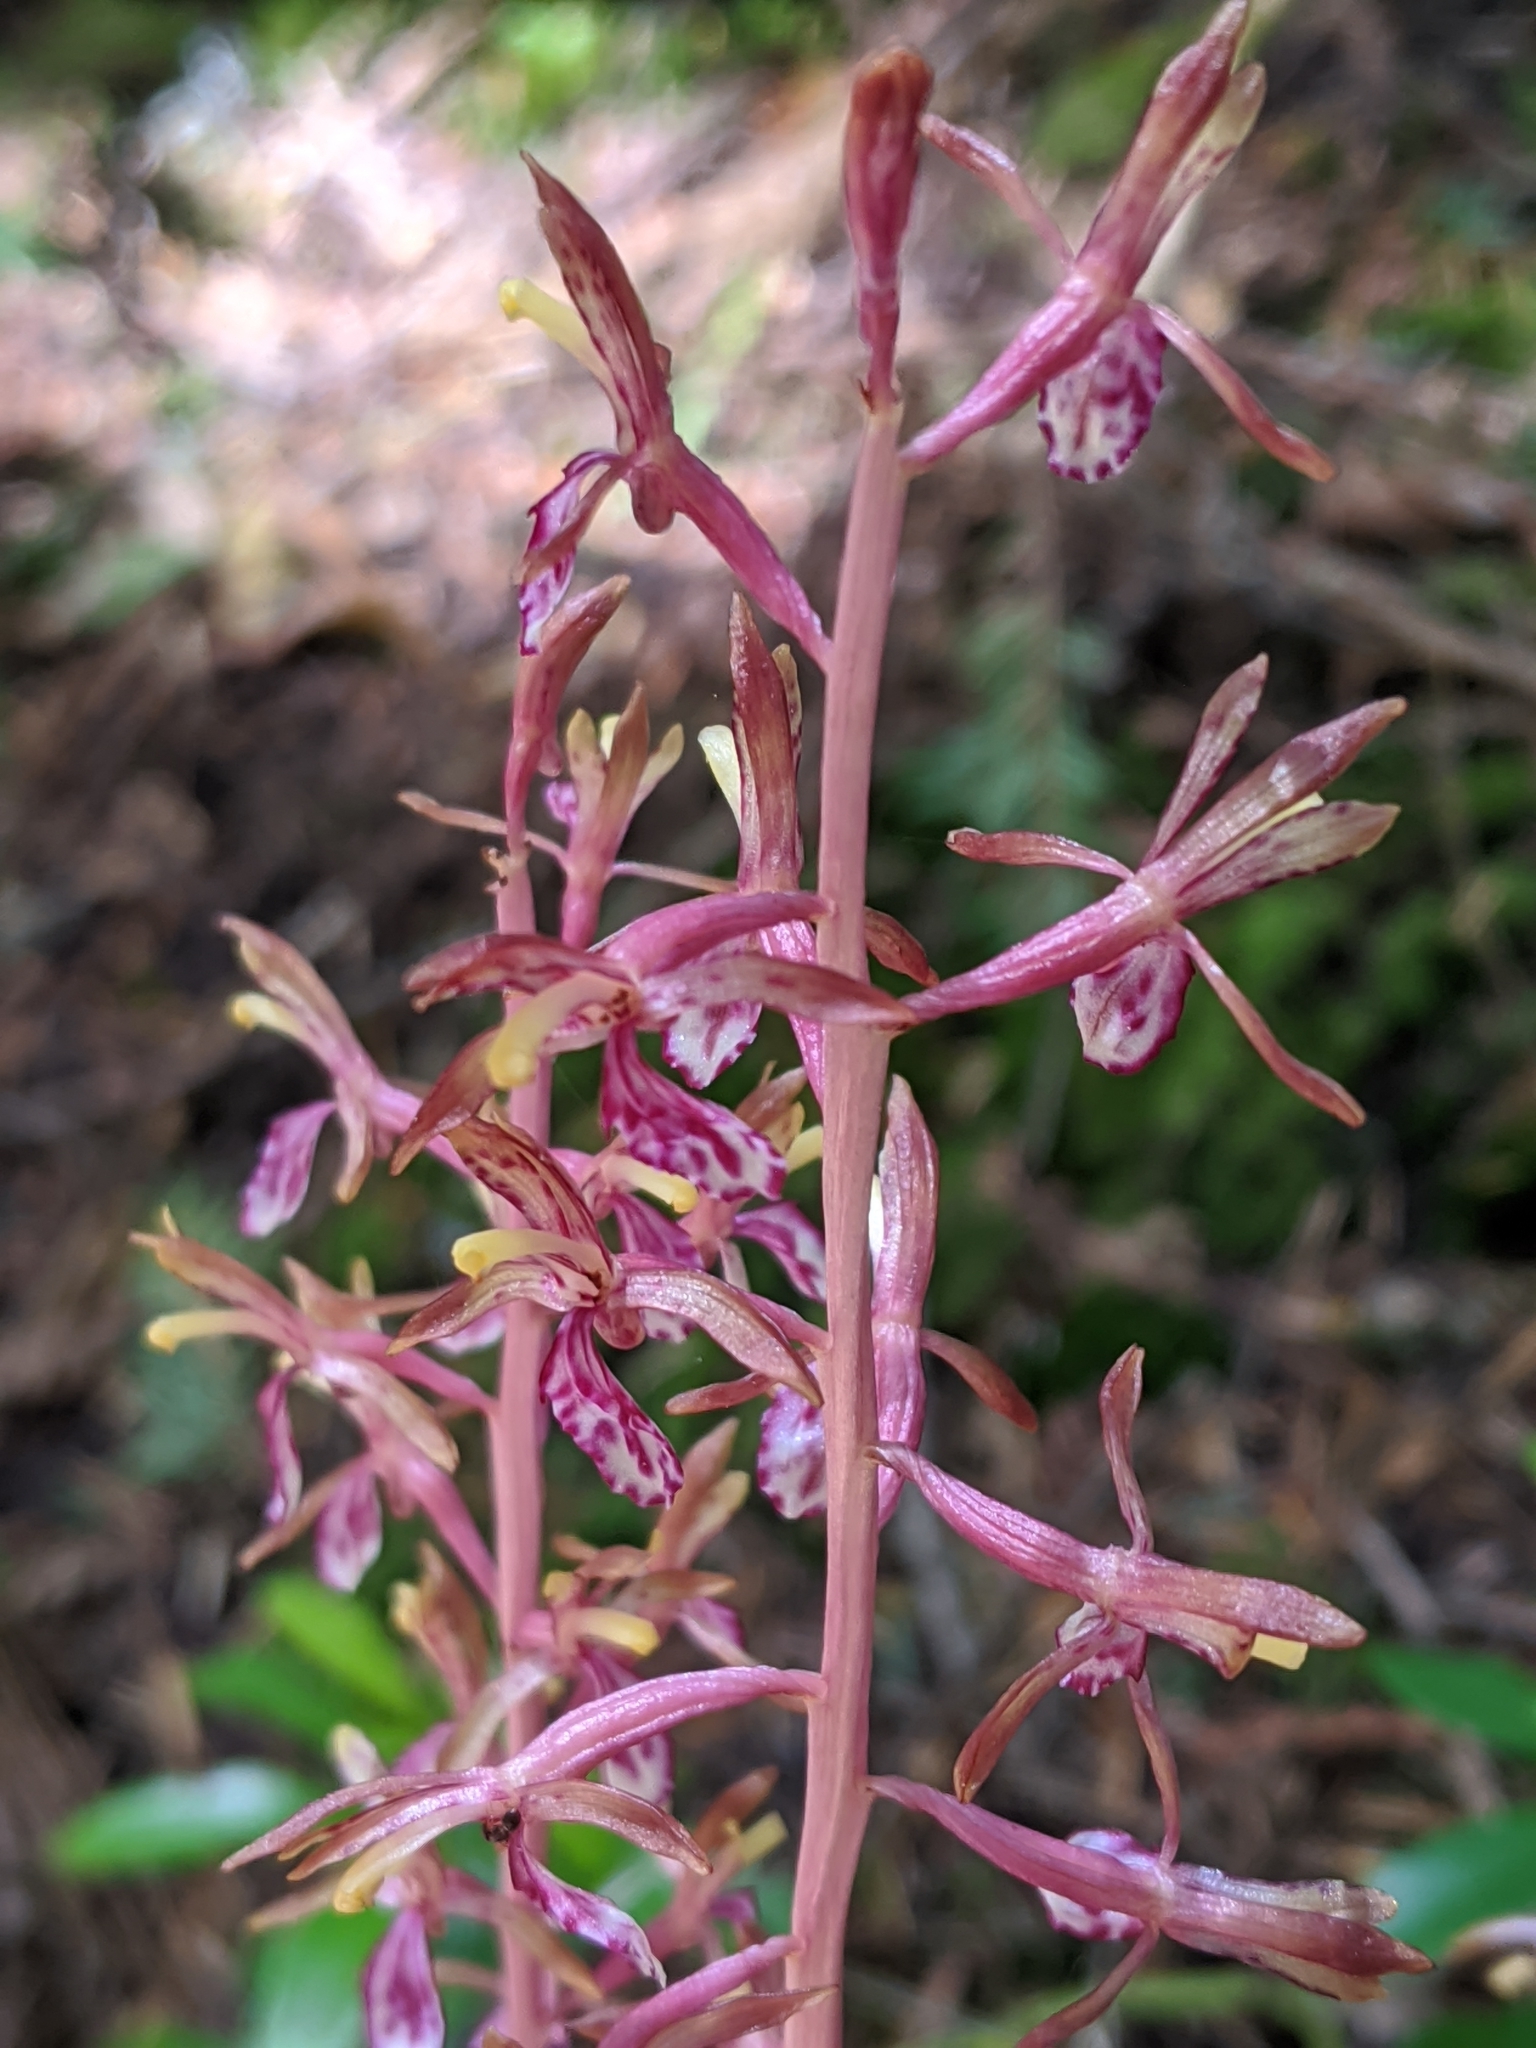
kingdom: Plantae
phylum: Tracheophyta
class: Liliopsida
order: Asparagales
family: Orchidaceae
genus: Corallorhiza
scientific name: Corallorhiza mertensiana
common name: Pacific coralroot
